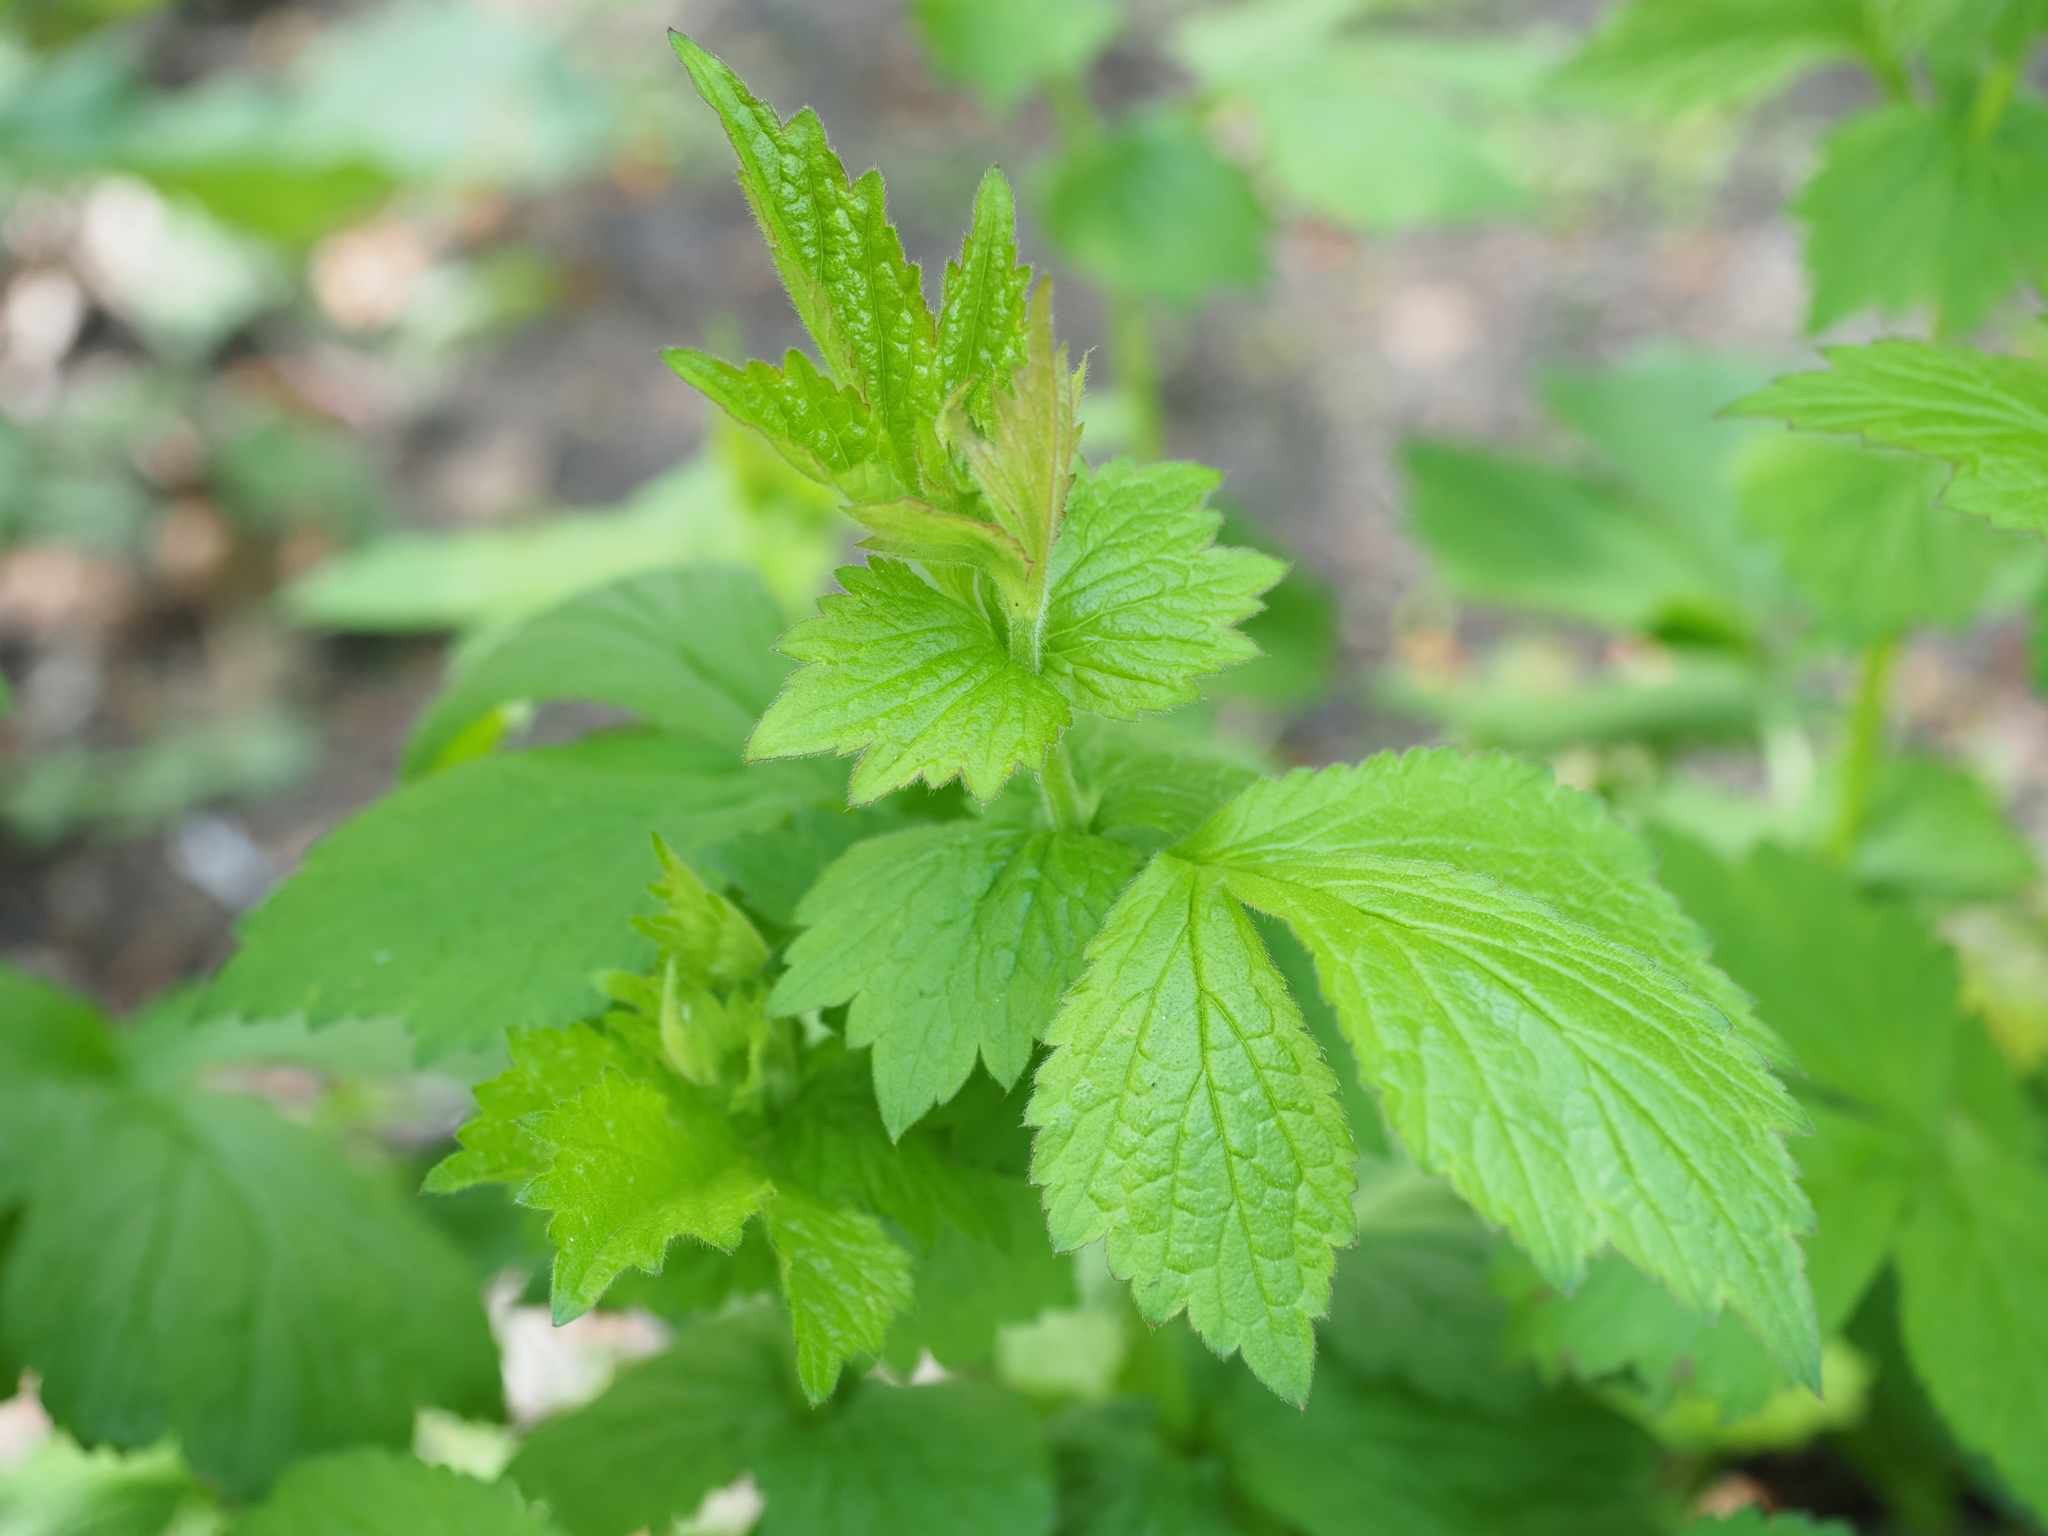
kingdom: Plantae
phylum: Tracheophyta
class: Magnoliopsida
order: Rosales
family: Rosaceae
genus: Geum
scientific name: Geum urbanum
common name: Wood avens
